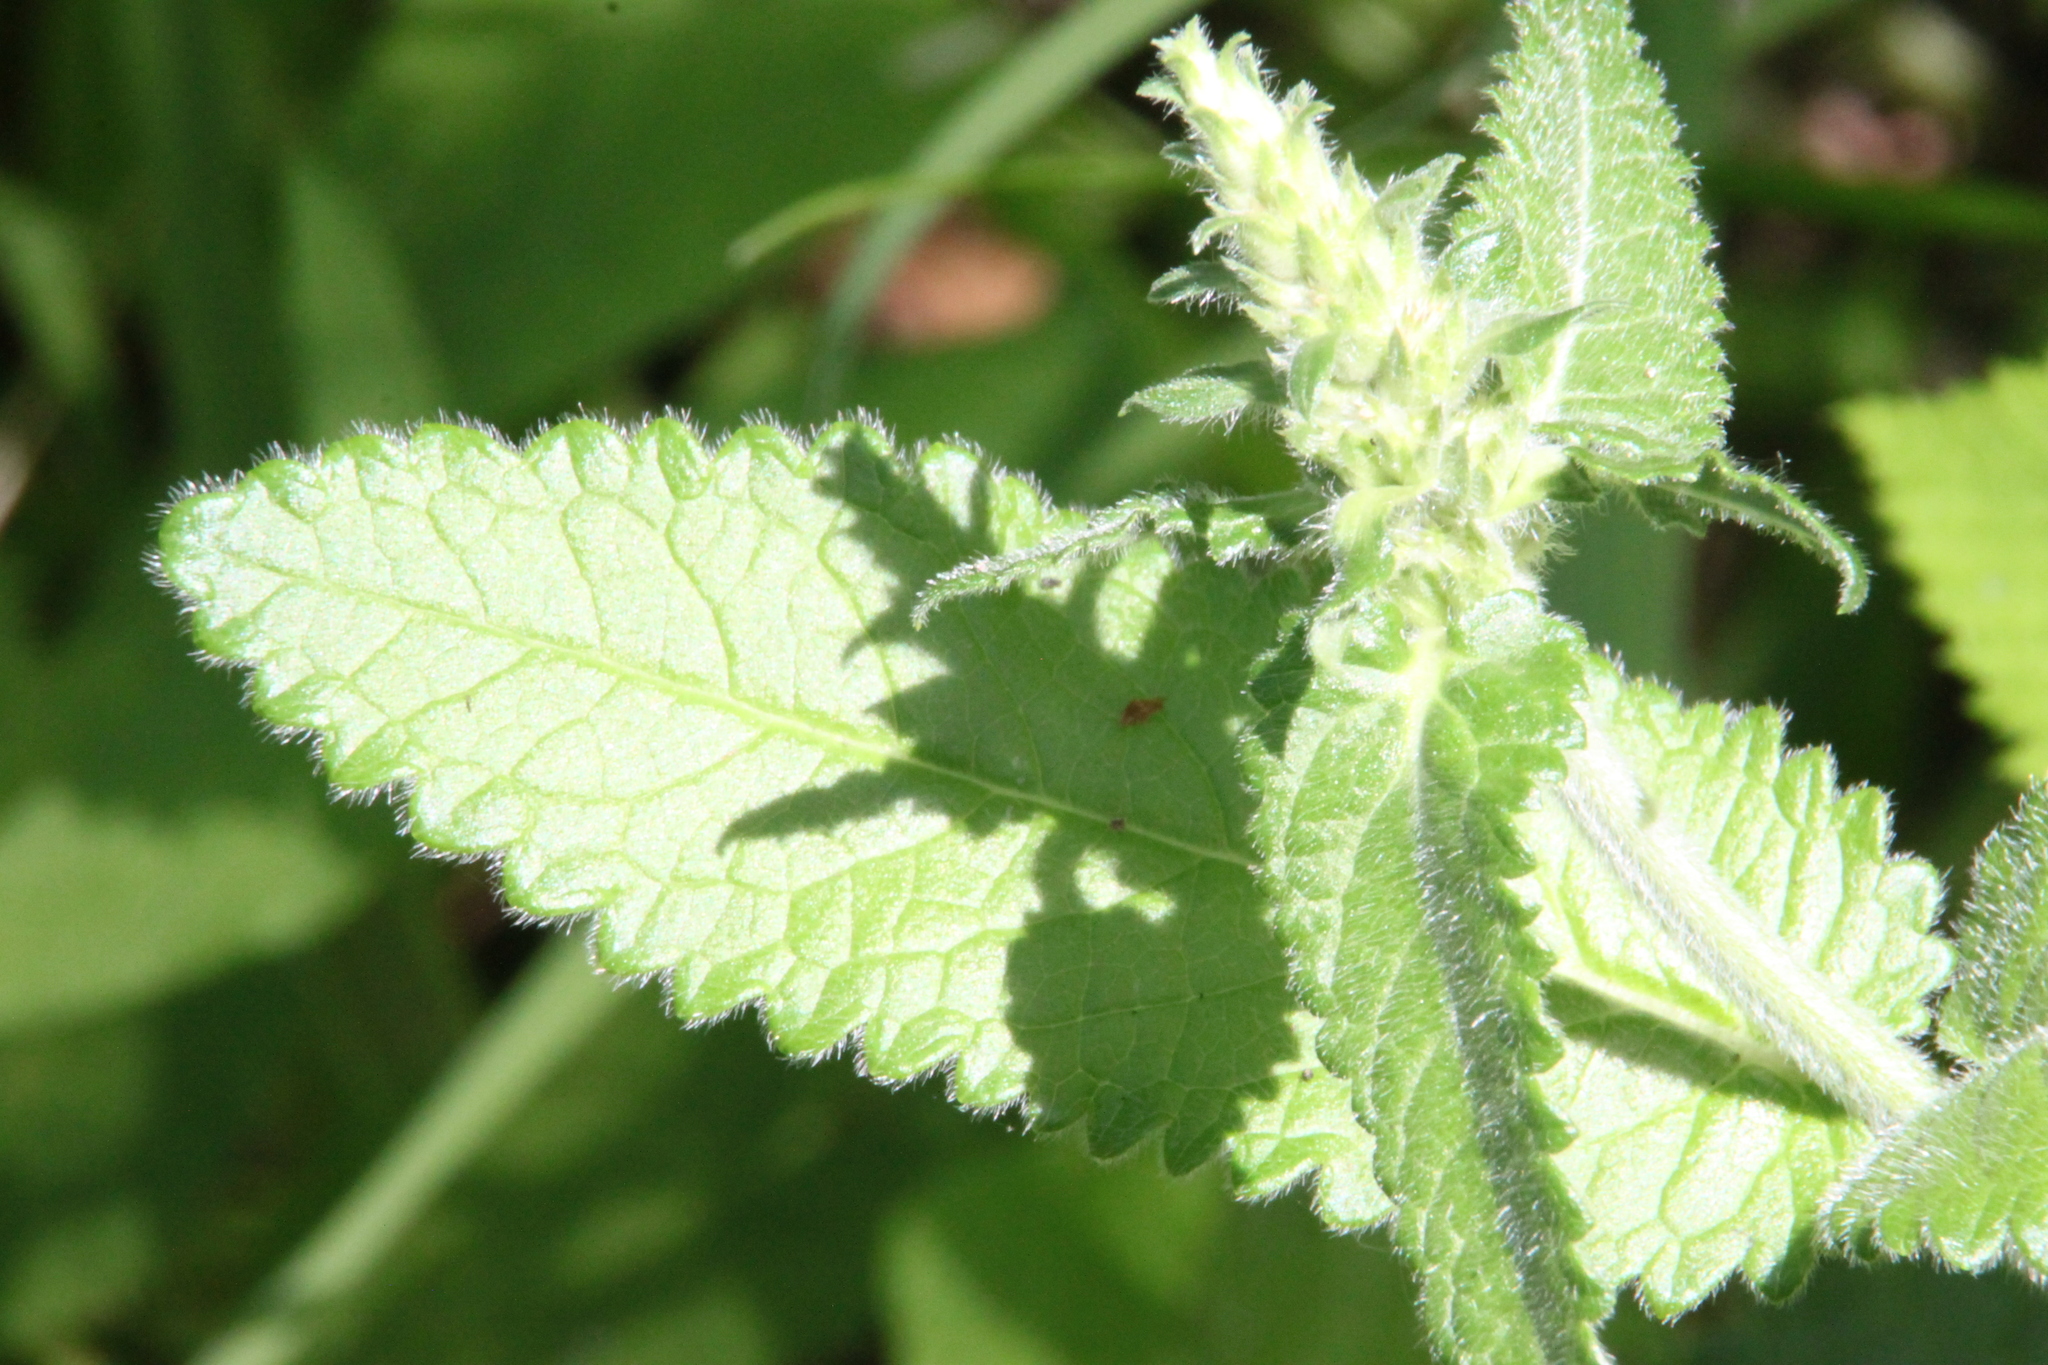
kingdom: Plantae
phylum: Tracheophyta
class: Magnoliopsida
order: Lamiales
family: Lamiaceae
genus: Betonica
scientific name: Betonica officinalis
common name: Bishop's-wort
